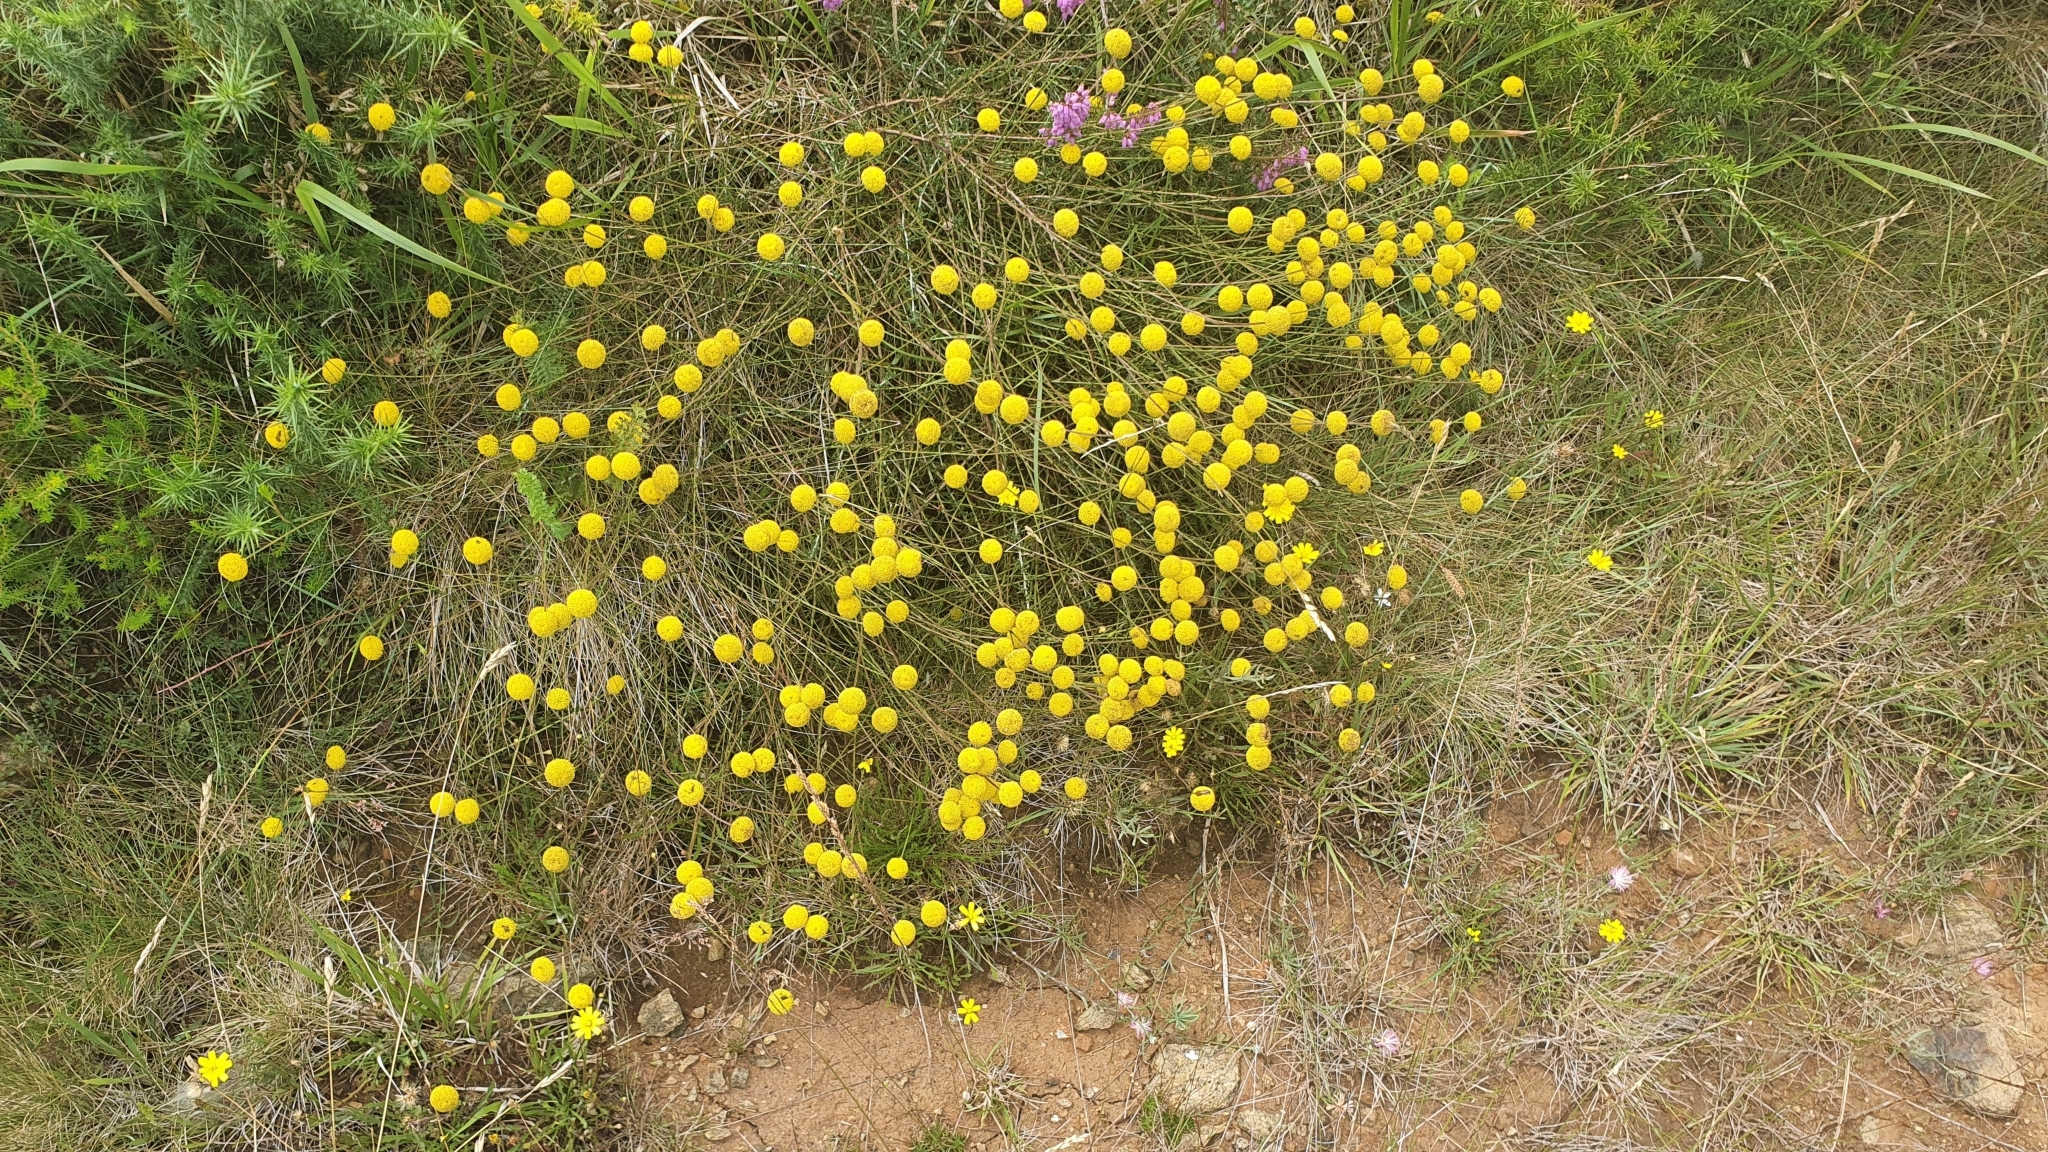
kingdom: Plantae
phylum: Tracheophyta
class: Magnoliopsida
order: Asterales
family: Asteraceae
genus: Santolina
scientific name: Santolina melidensis
